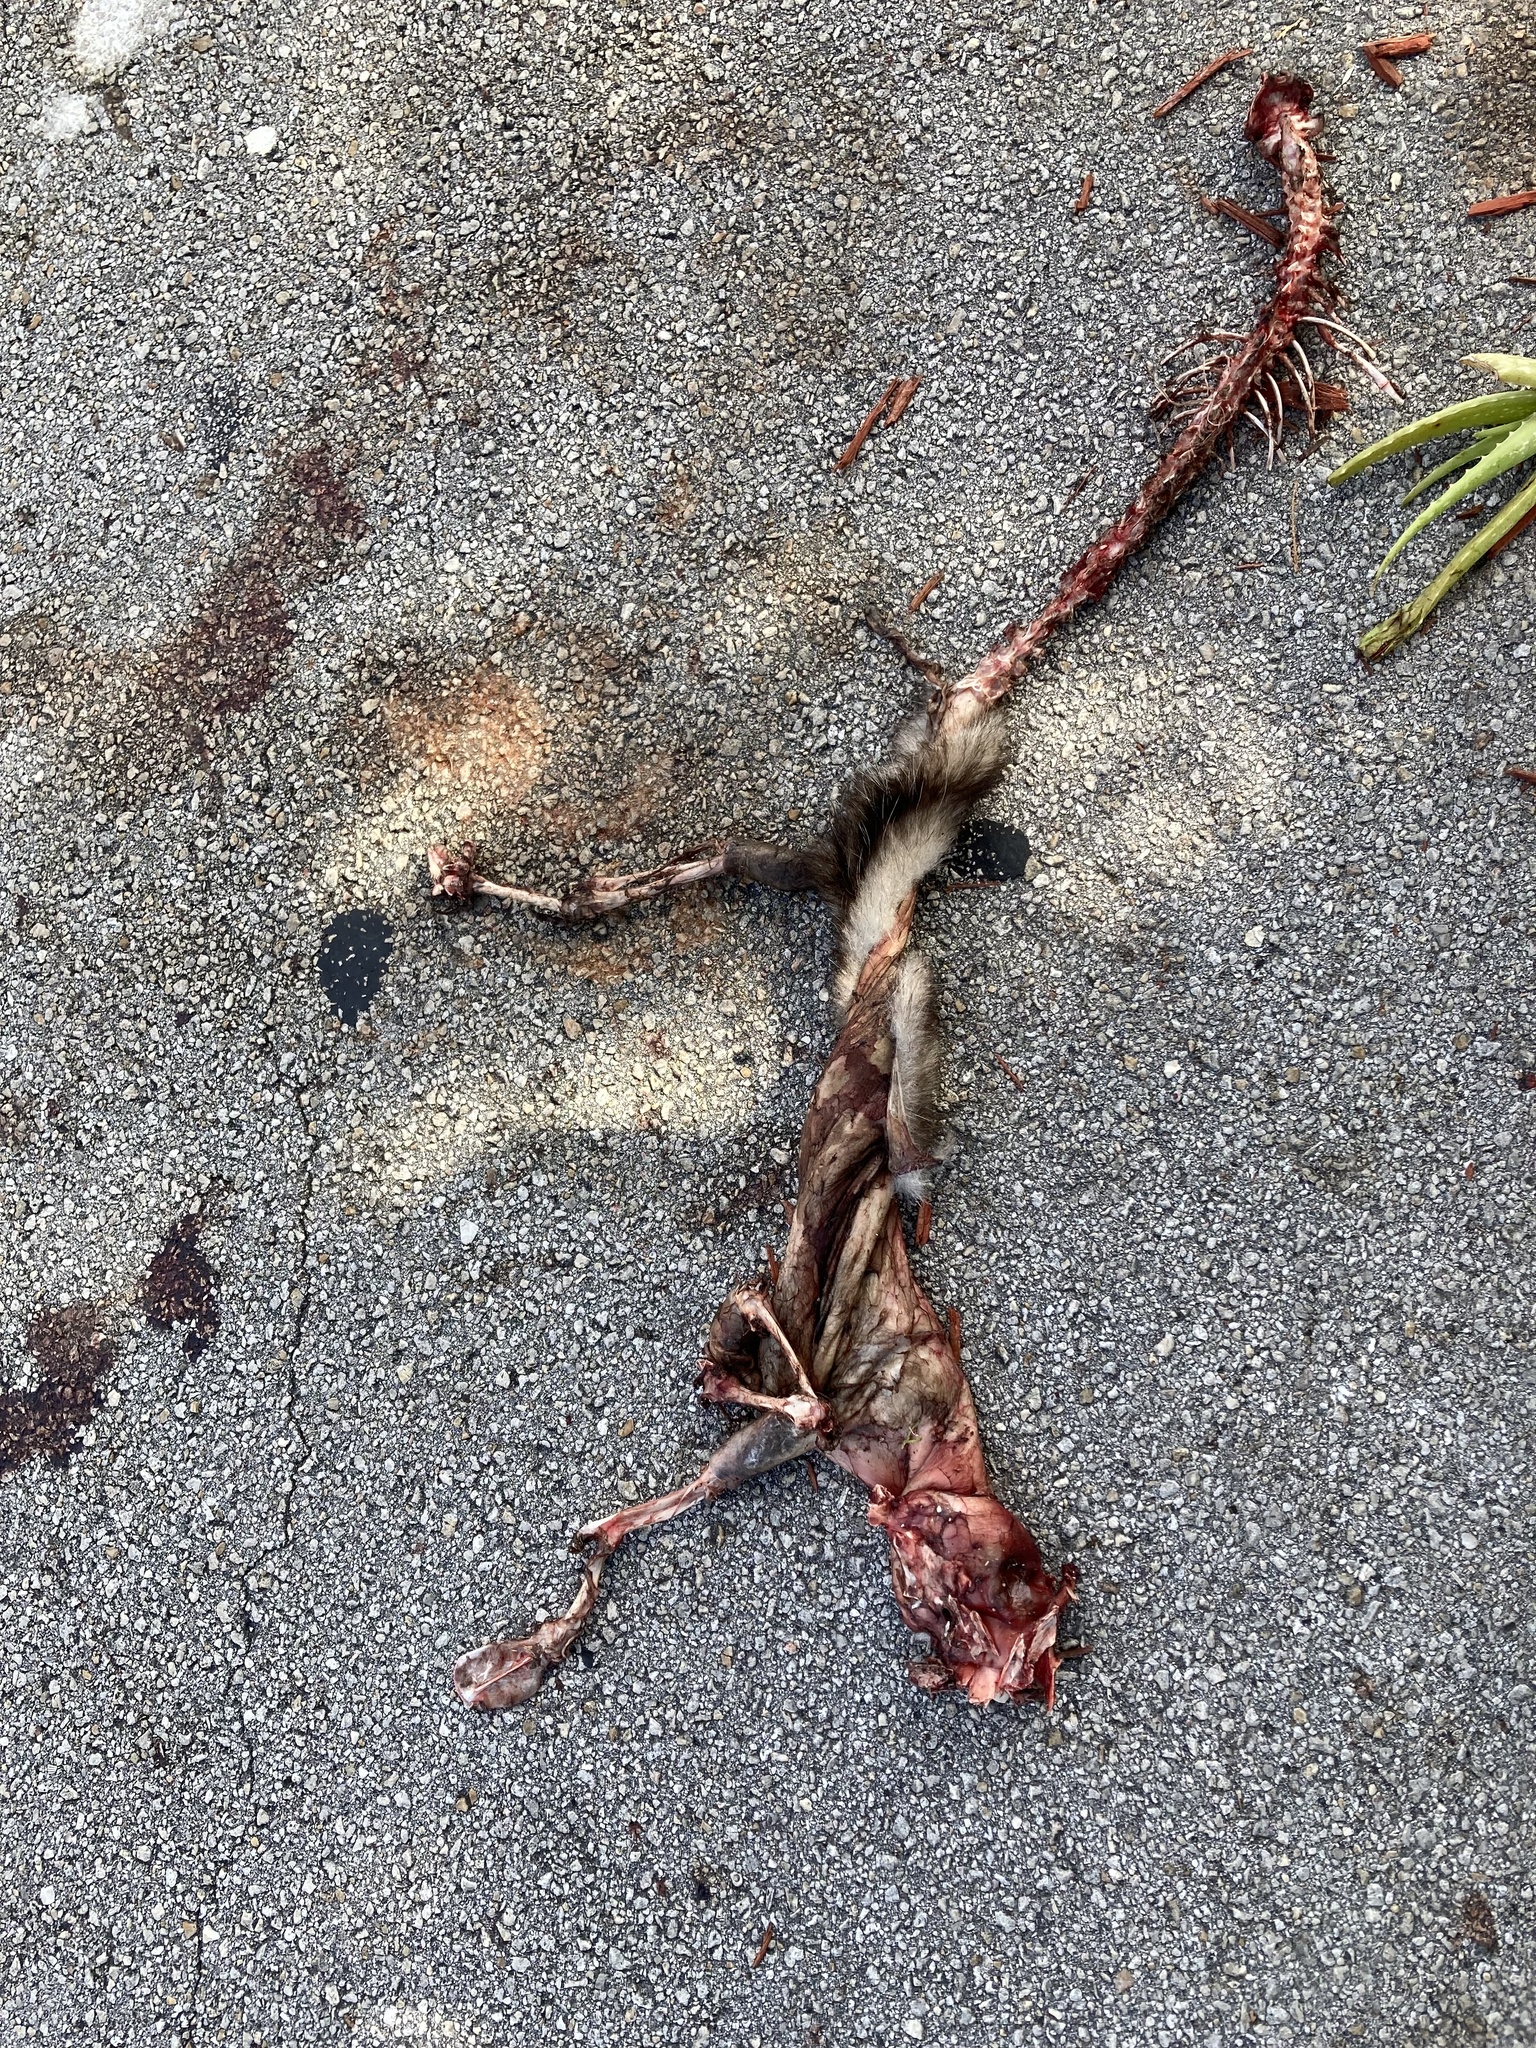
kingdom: Animalia
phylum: Chordata
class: Mammalia
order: Didelphimorphia
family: Didelphidae
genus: Didelphis
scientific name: Didelphis virginiana
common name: Virginia opossum
